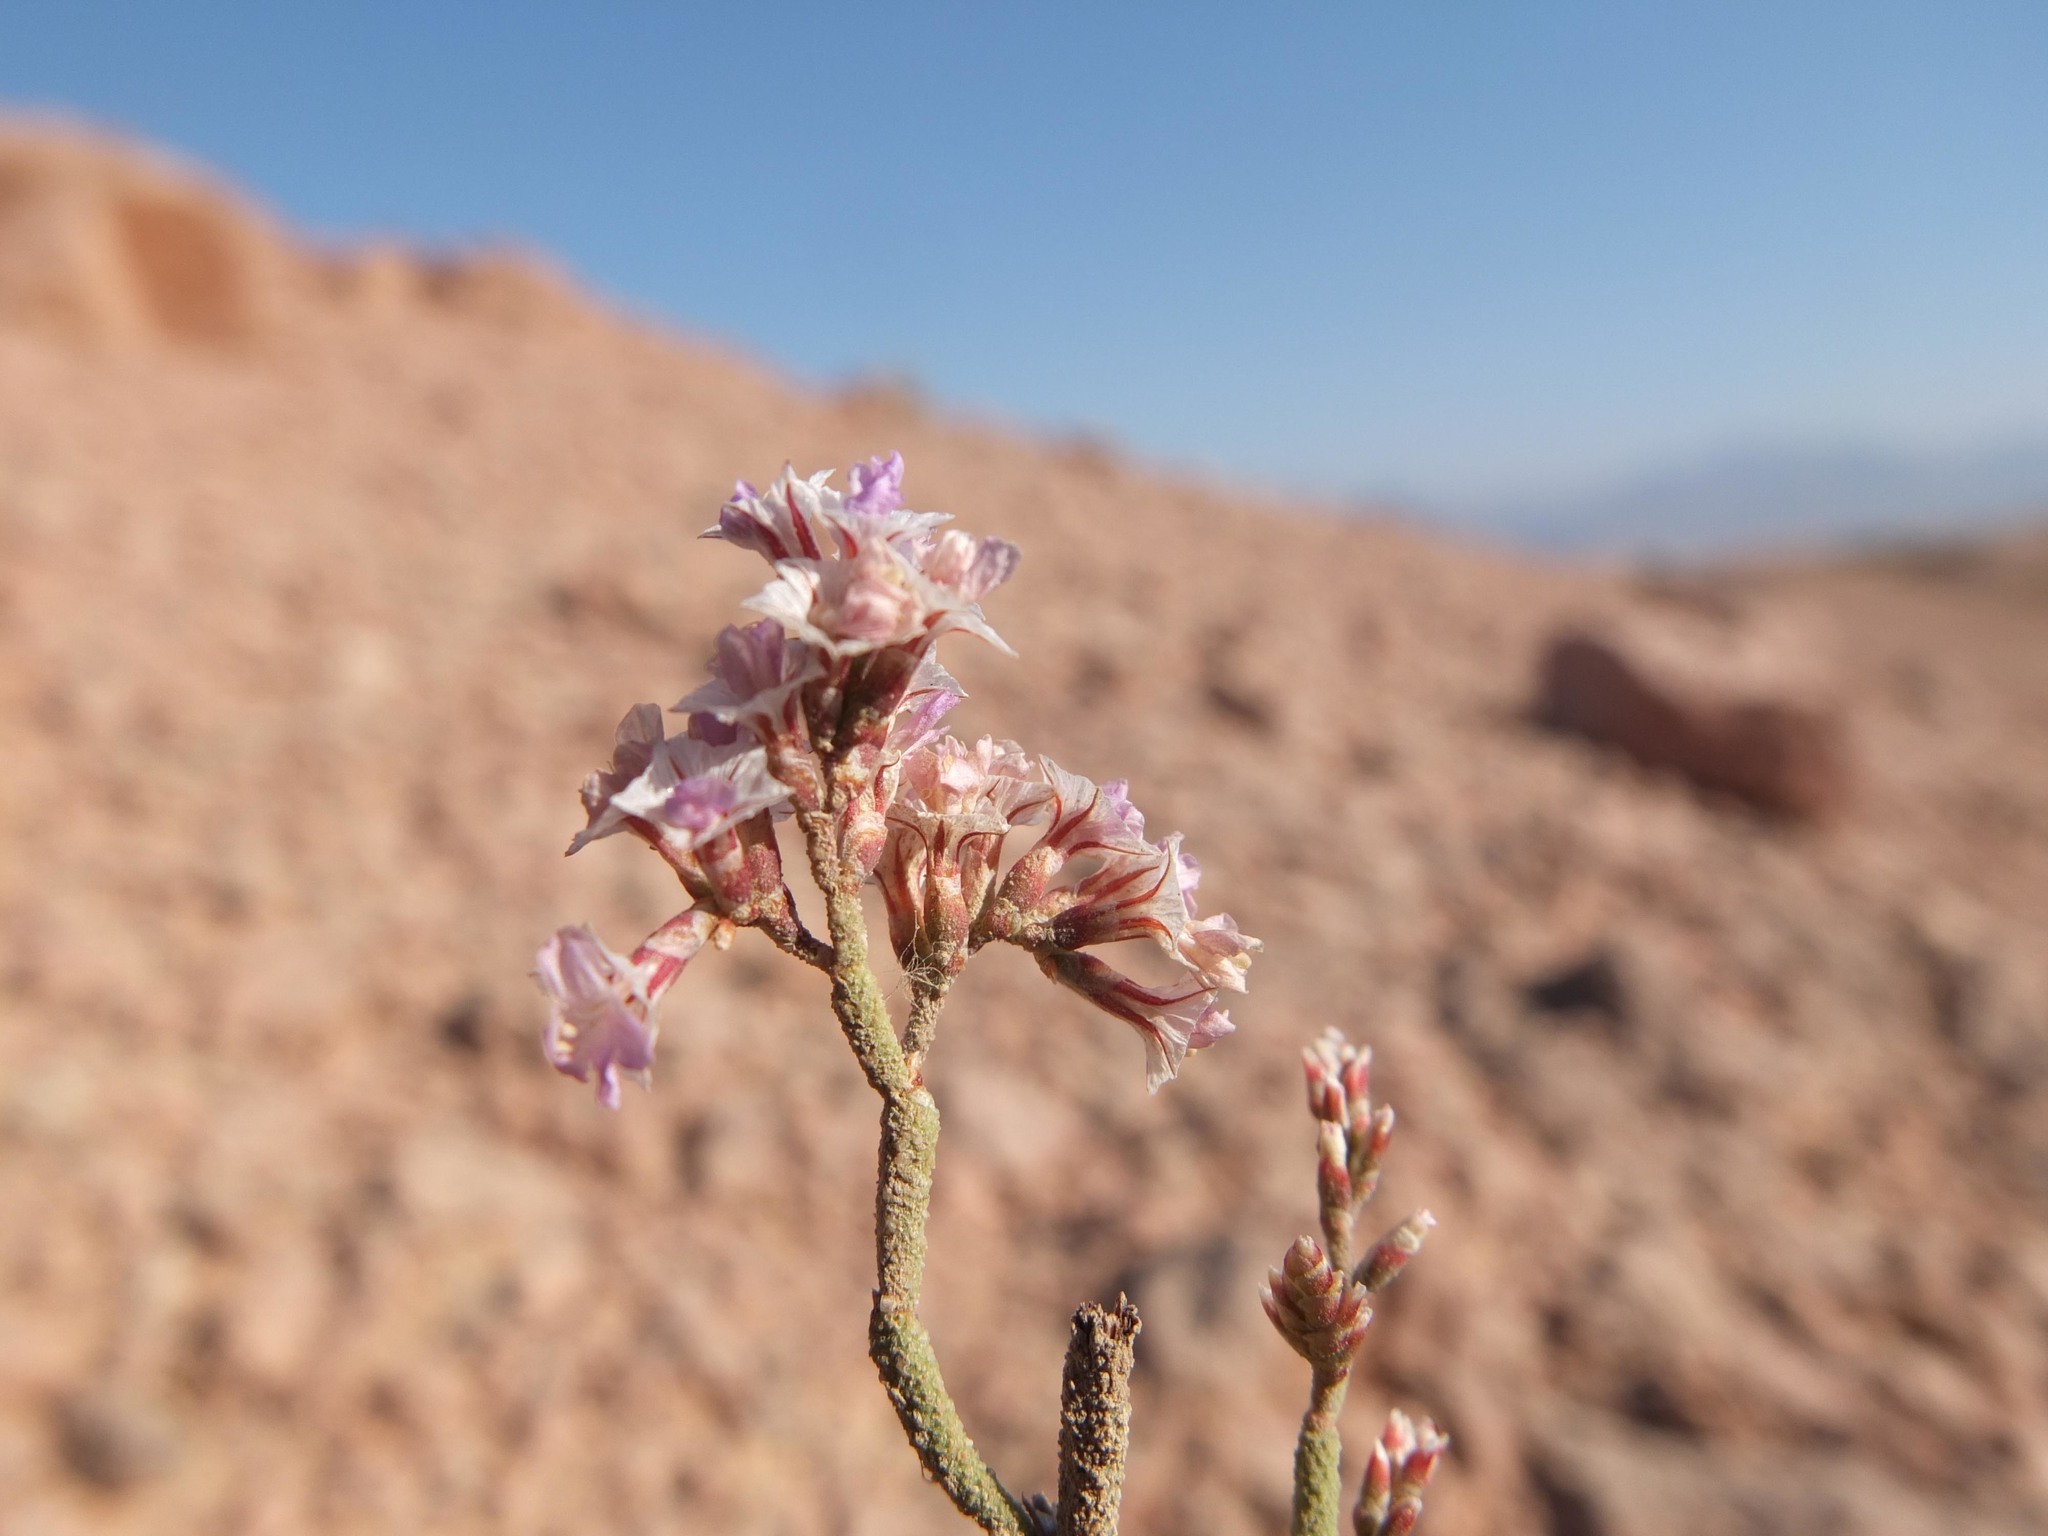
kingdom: Plantae
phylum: Tracheophyta
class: Magnoliopsida
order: Caryophyllales
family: Plumbaginaceae
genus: Limonium
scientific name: Limonium pruinosum
